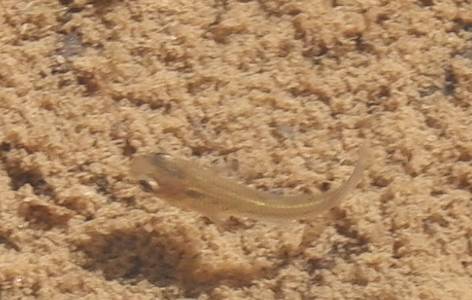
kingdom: Animalia
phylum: Chordata
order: Cyprinodontiformes
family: Poeciliidae
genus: Gambusia
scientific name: Gambusia holbrooki
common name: Eastern mosquitofish
